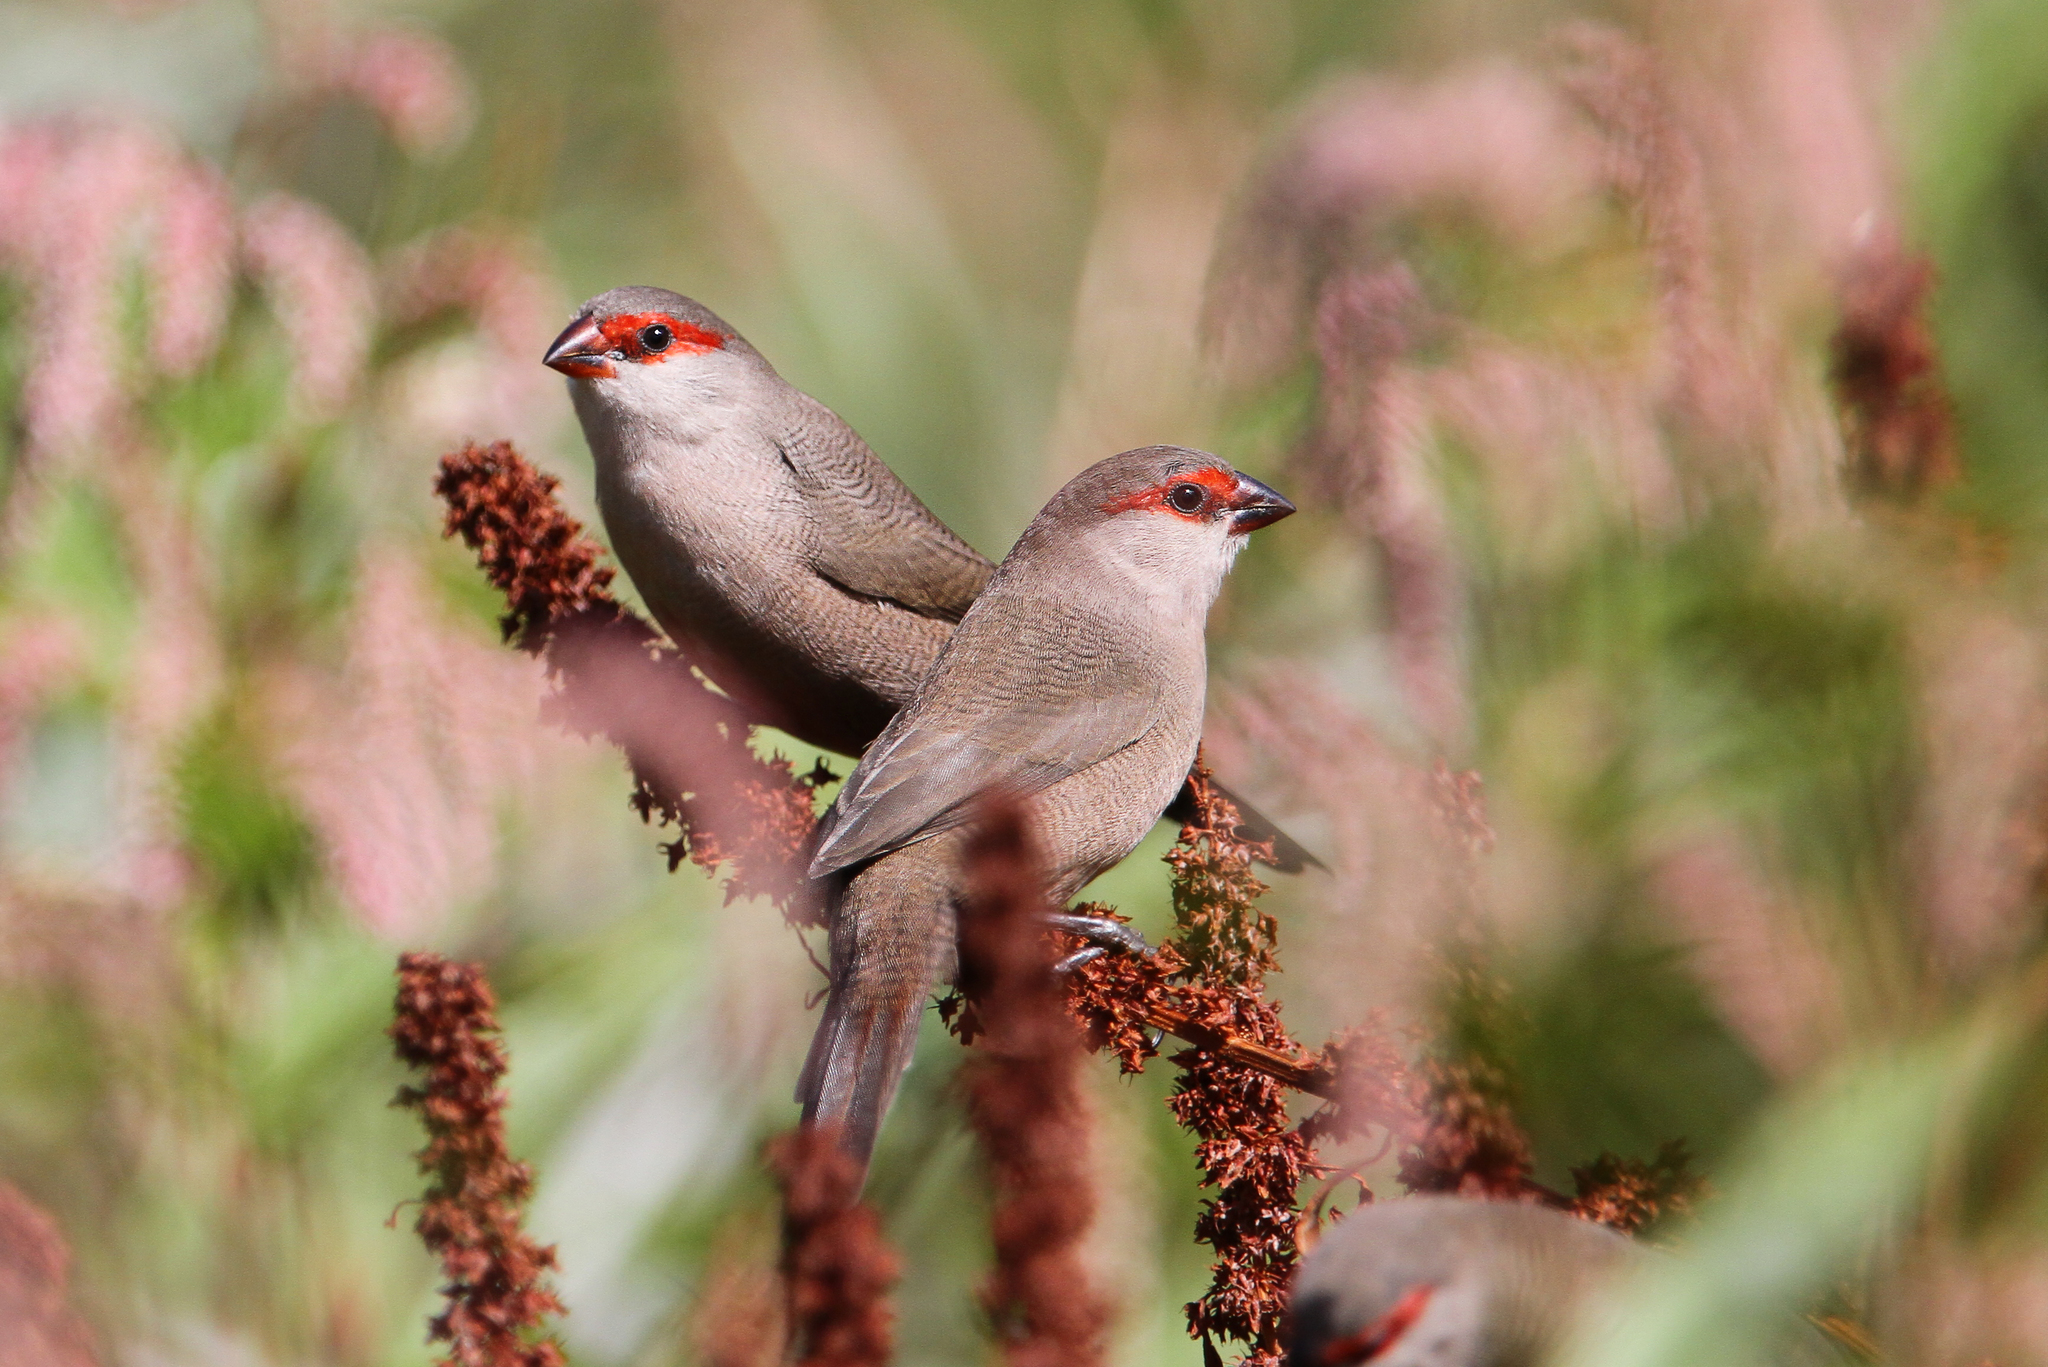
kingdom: Animalia
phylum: Chordata
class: Aves
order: Passeriformes
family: Estrildidae
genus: Estrilda
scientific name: Estrilda astrild
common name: Common waxbill
